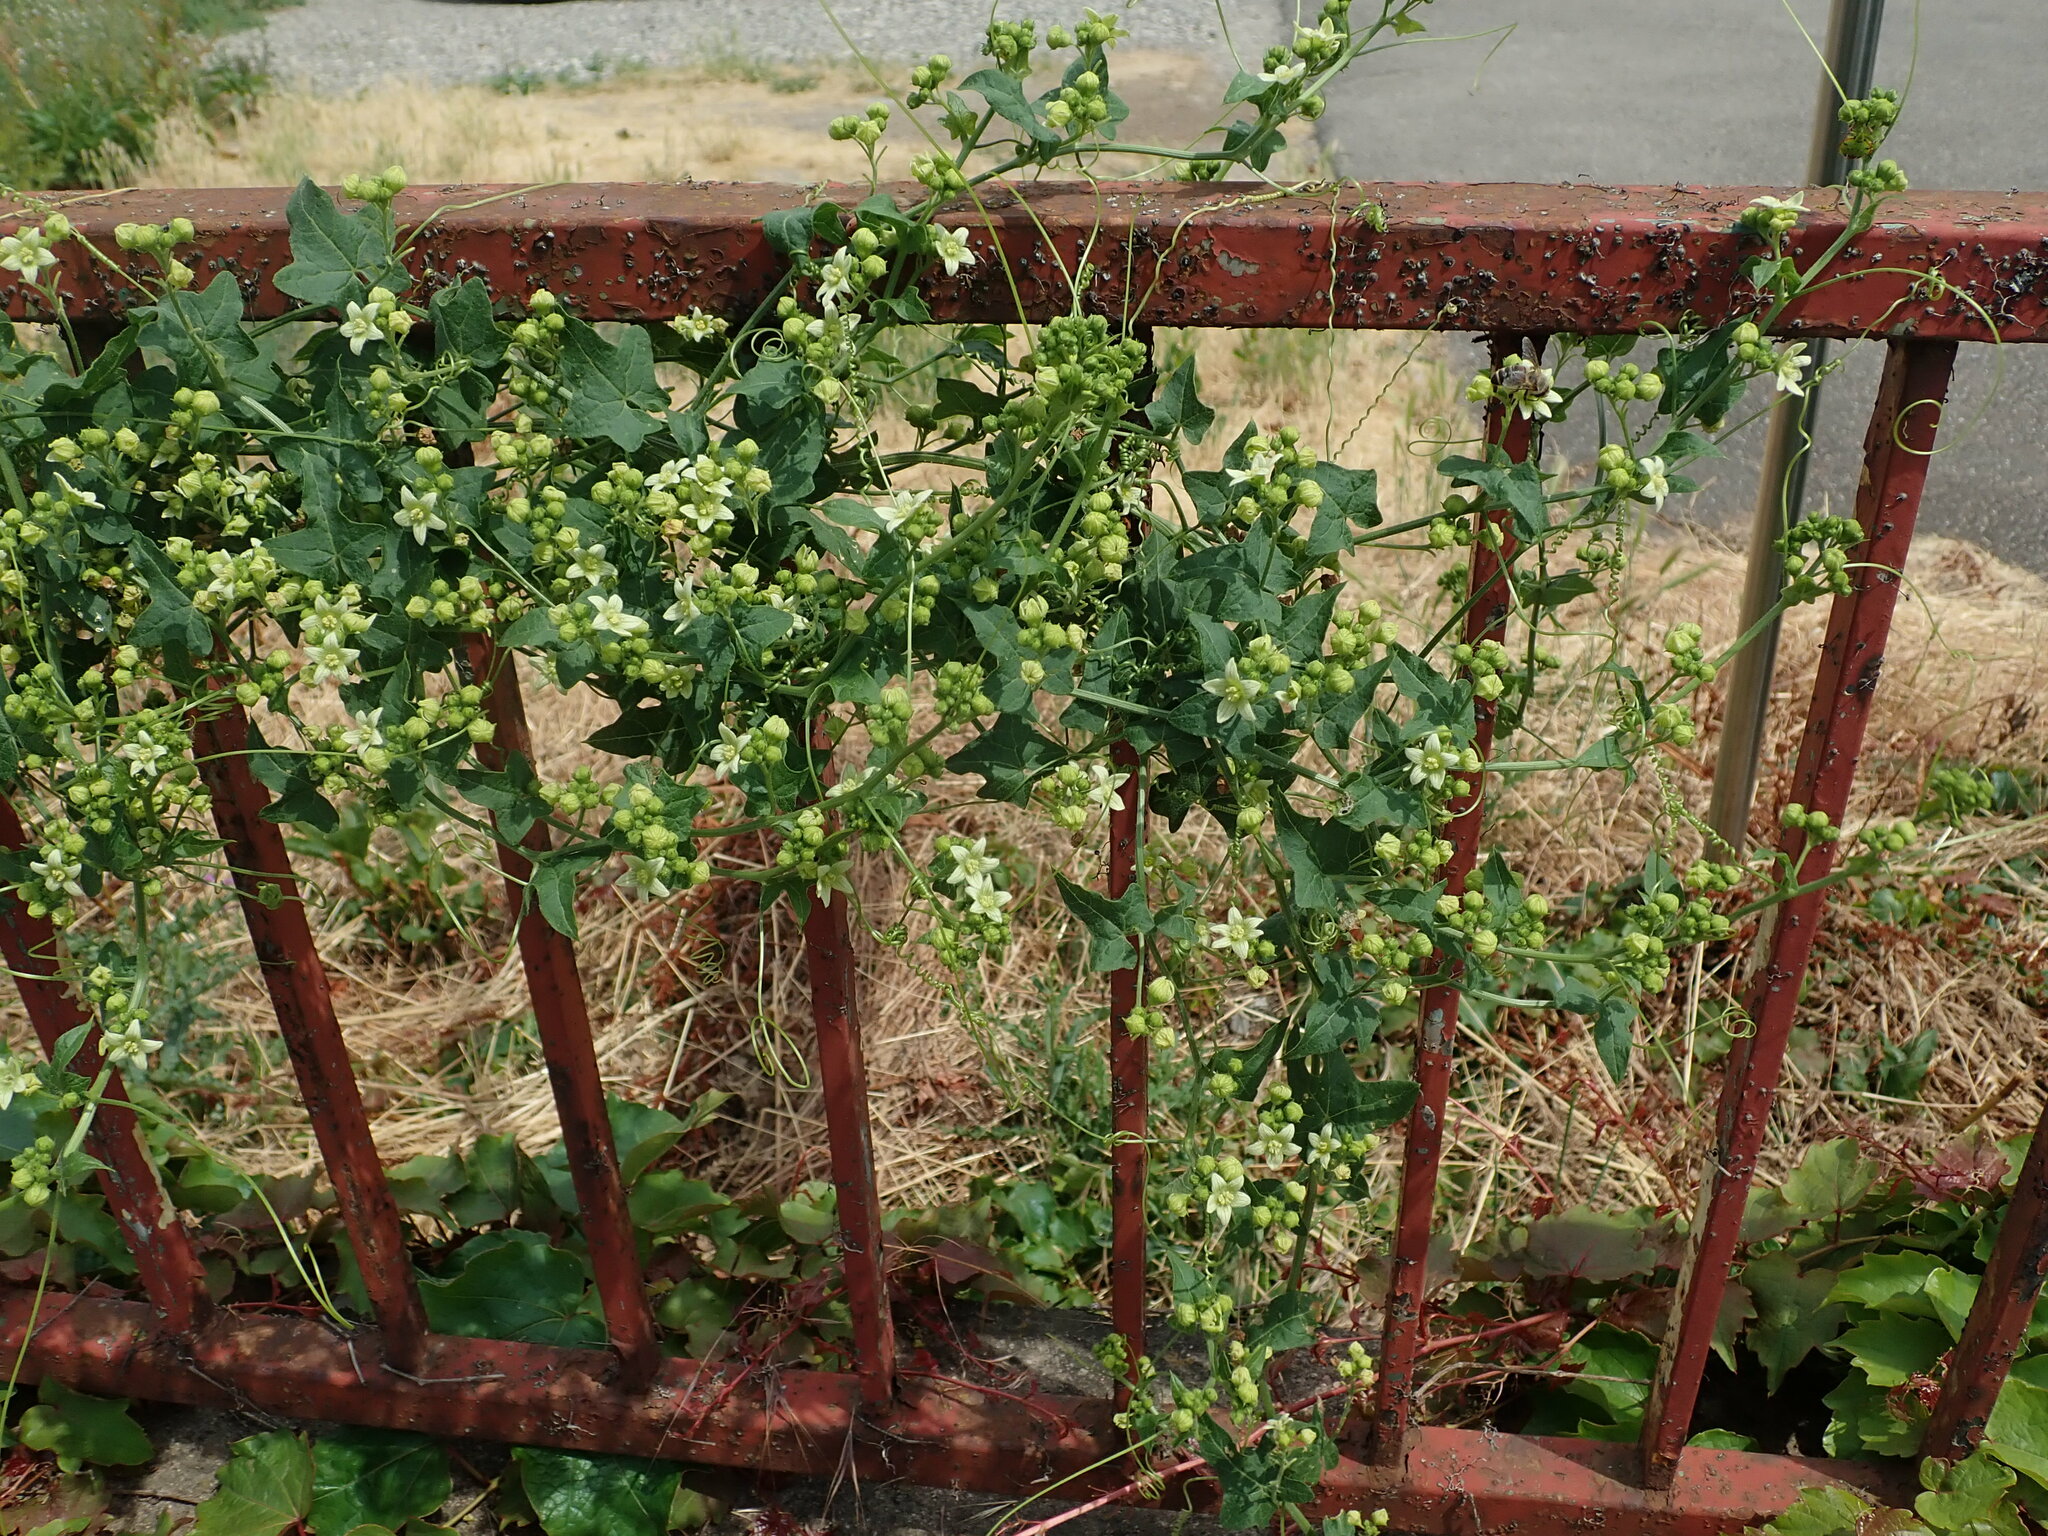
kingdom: Plantae
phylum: Tracheophyta
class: Magnoliopsida
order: Cucurbitales
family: Cucurbitaceae
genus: Bryonia
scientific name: Bryonia dioica
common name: White bryony
